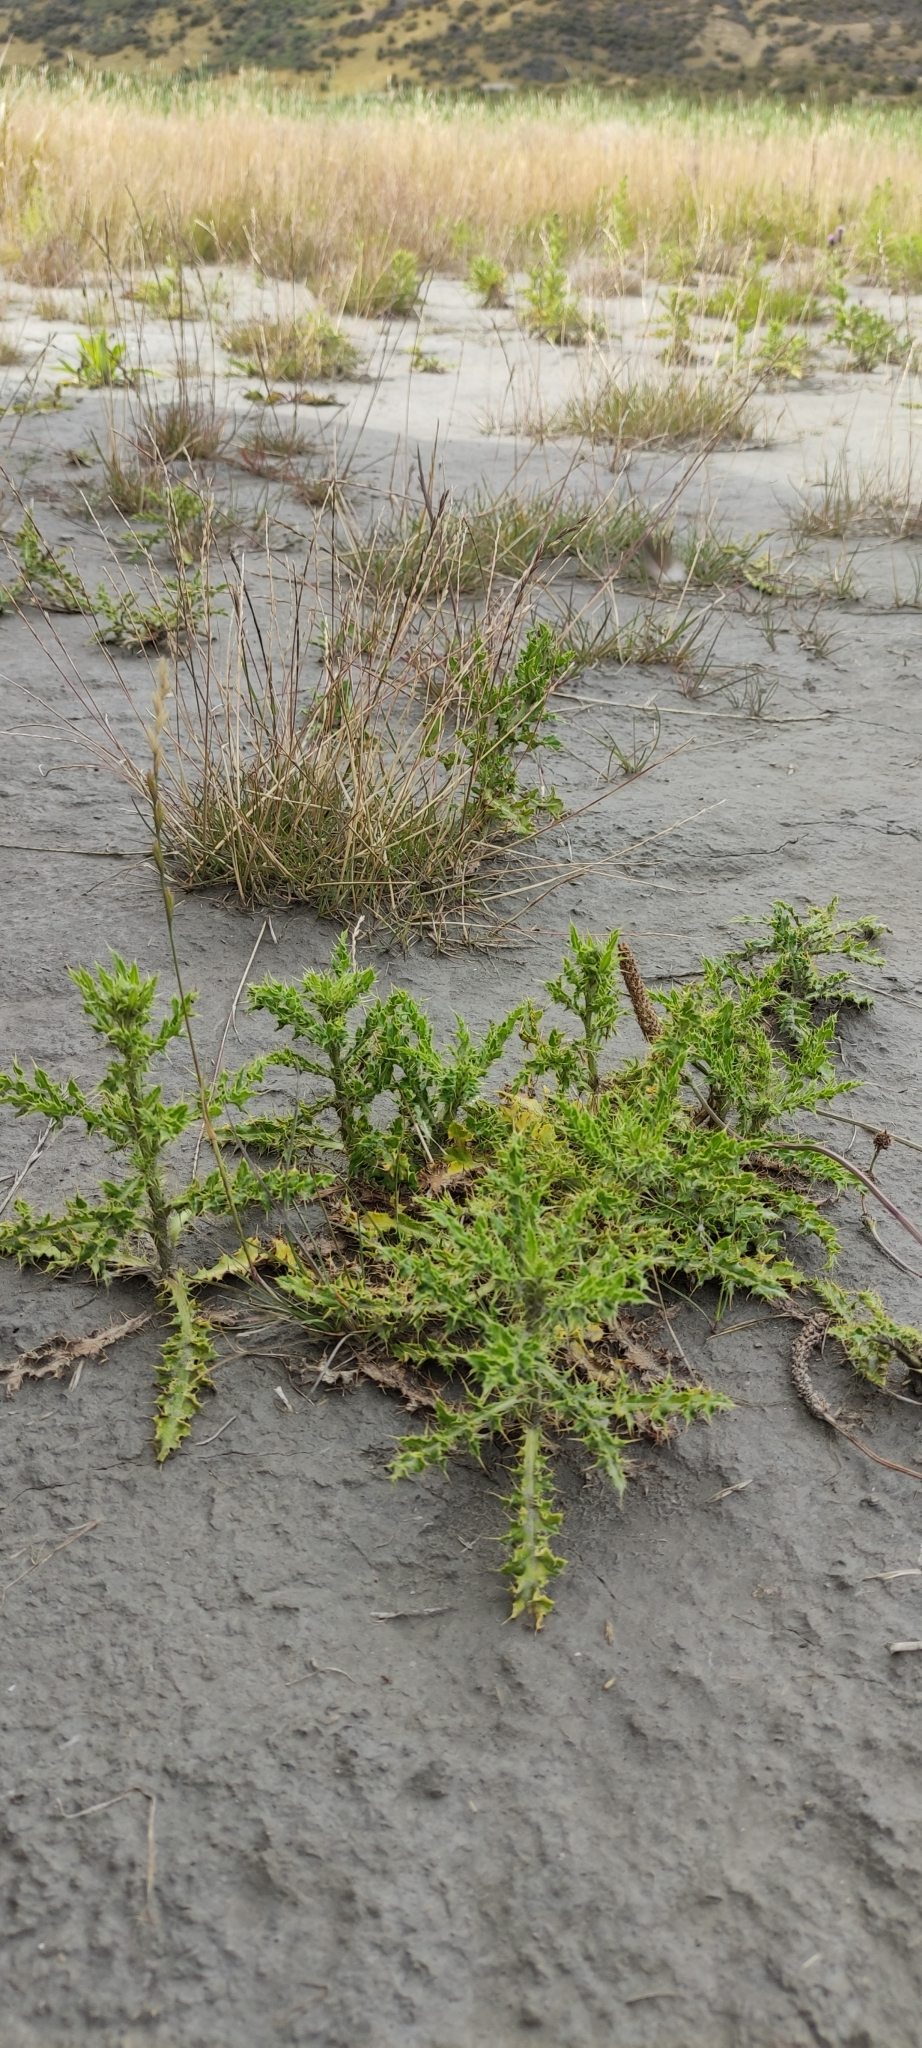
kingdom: Plantae
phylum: Tracheophyta
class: Magnoliopsida
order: Asterales
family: Asteraceae
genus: Cirsium
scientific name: Cirsium arvense
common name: Creeping thistle
